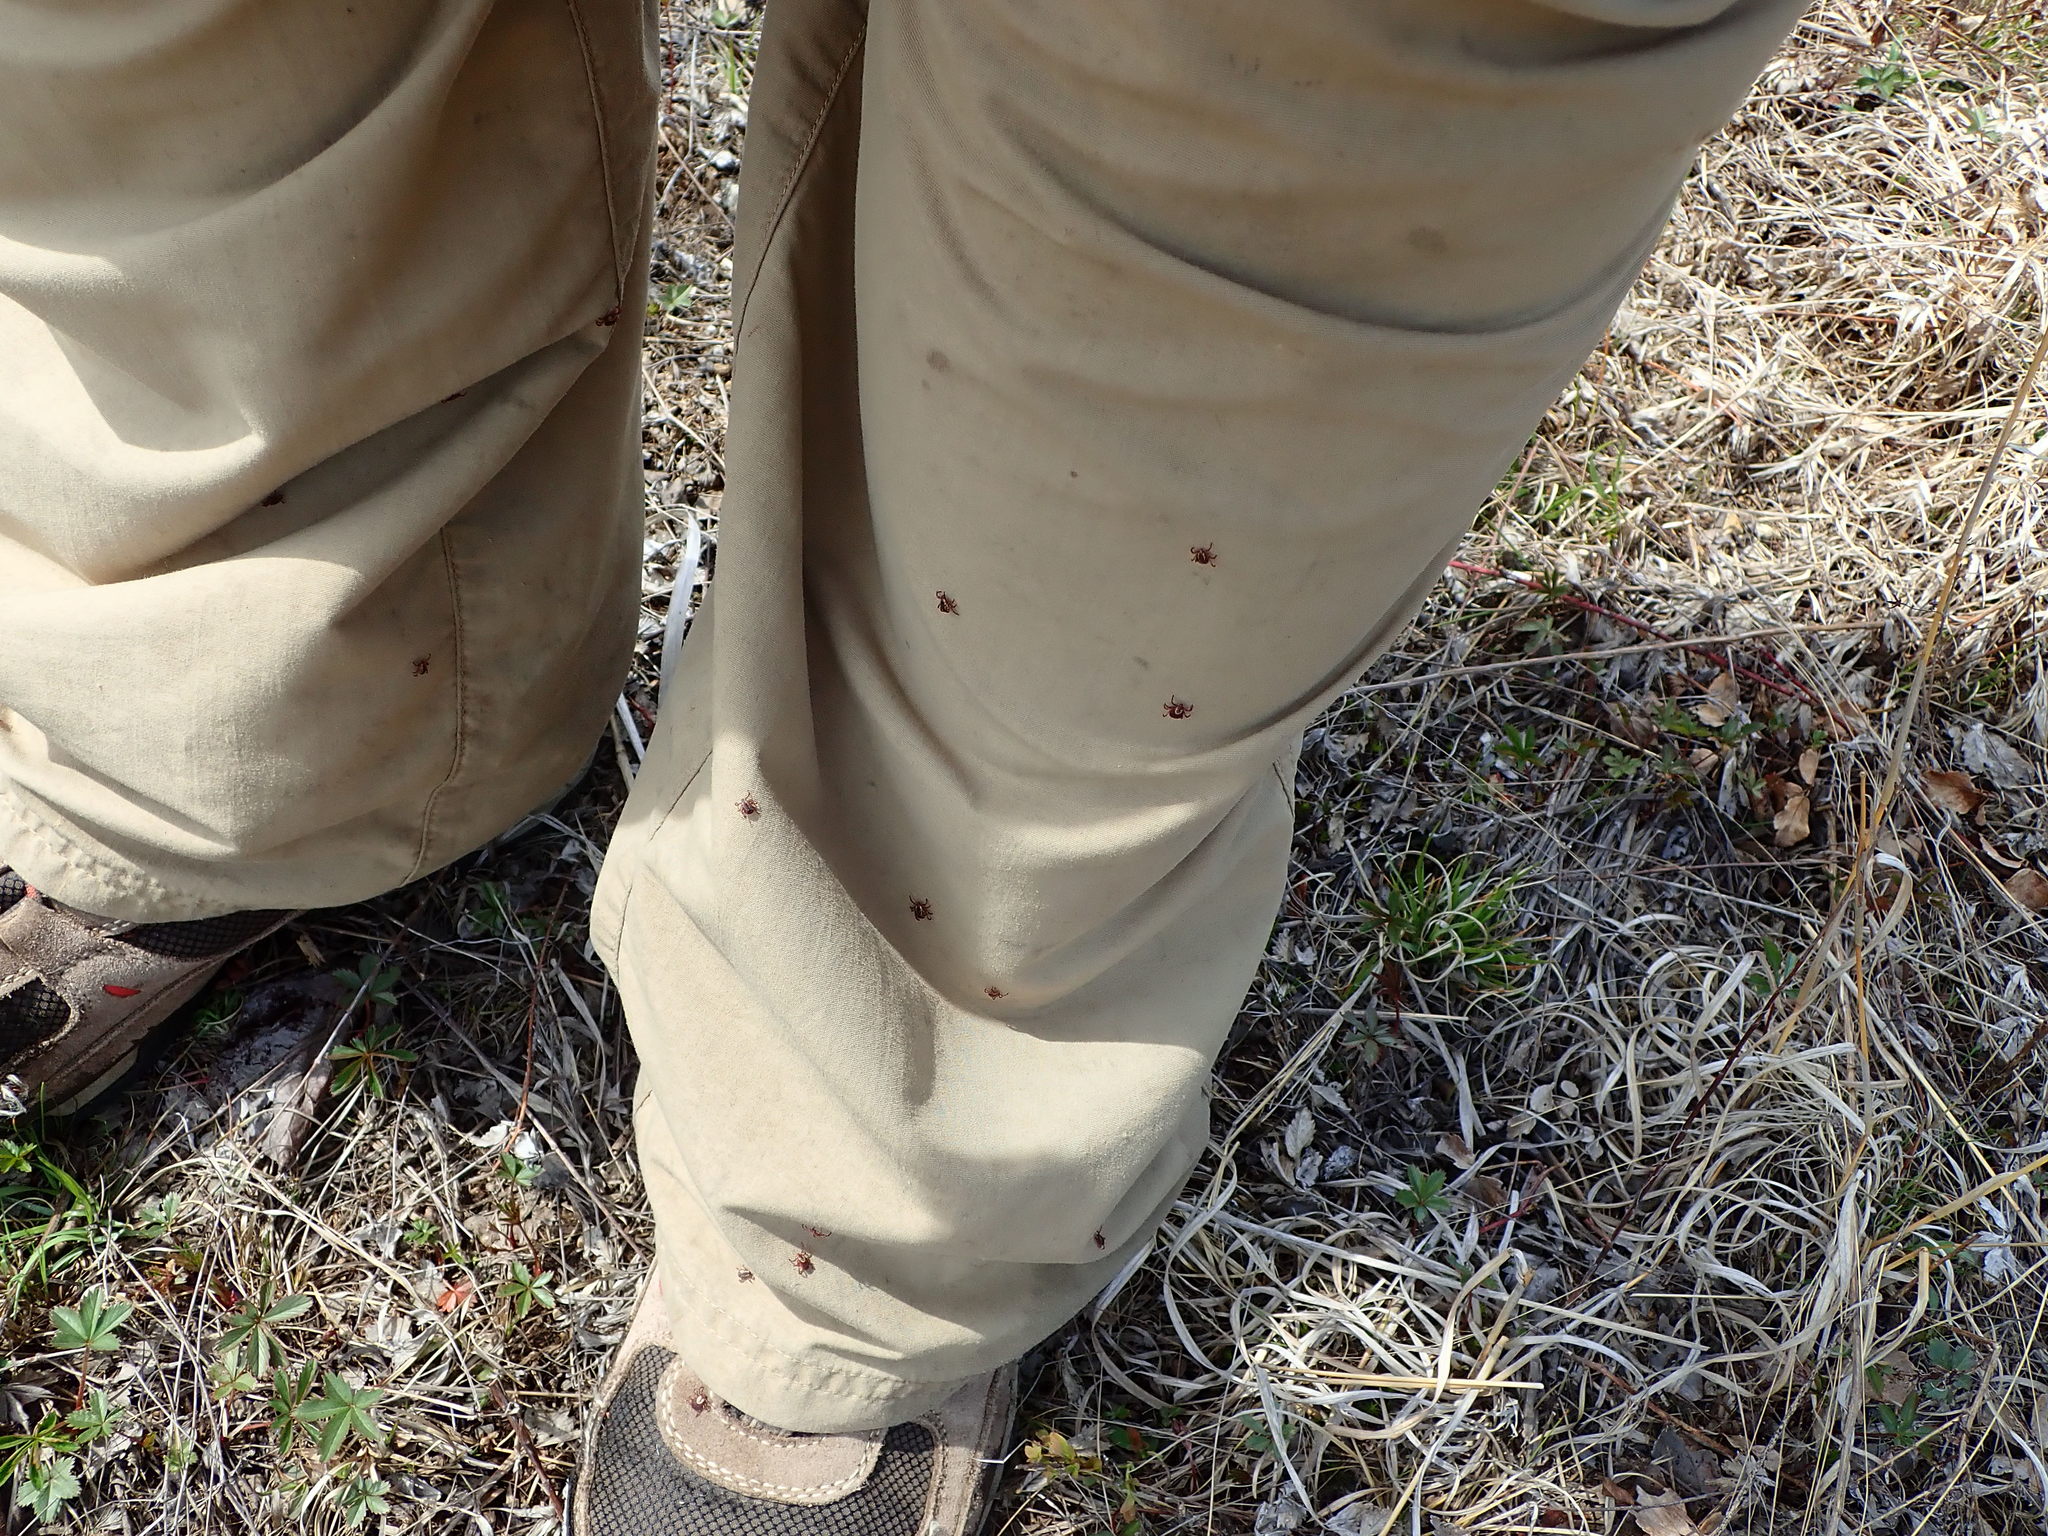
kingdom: Animalia
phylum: Arthropoda
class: Arachnida
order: Ixodida
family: Ixodidae
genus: Dermacentor
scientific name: Dermacentor variabilis
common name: American dog tick
